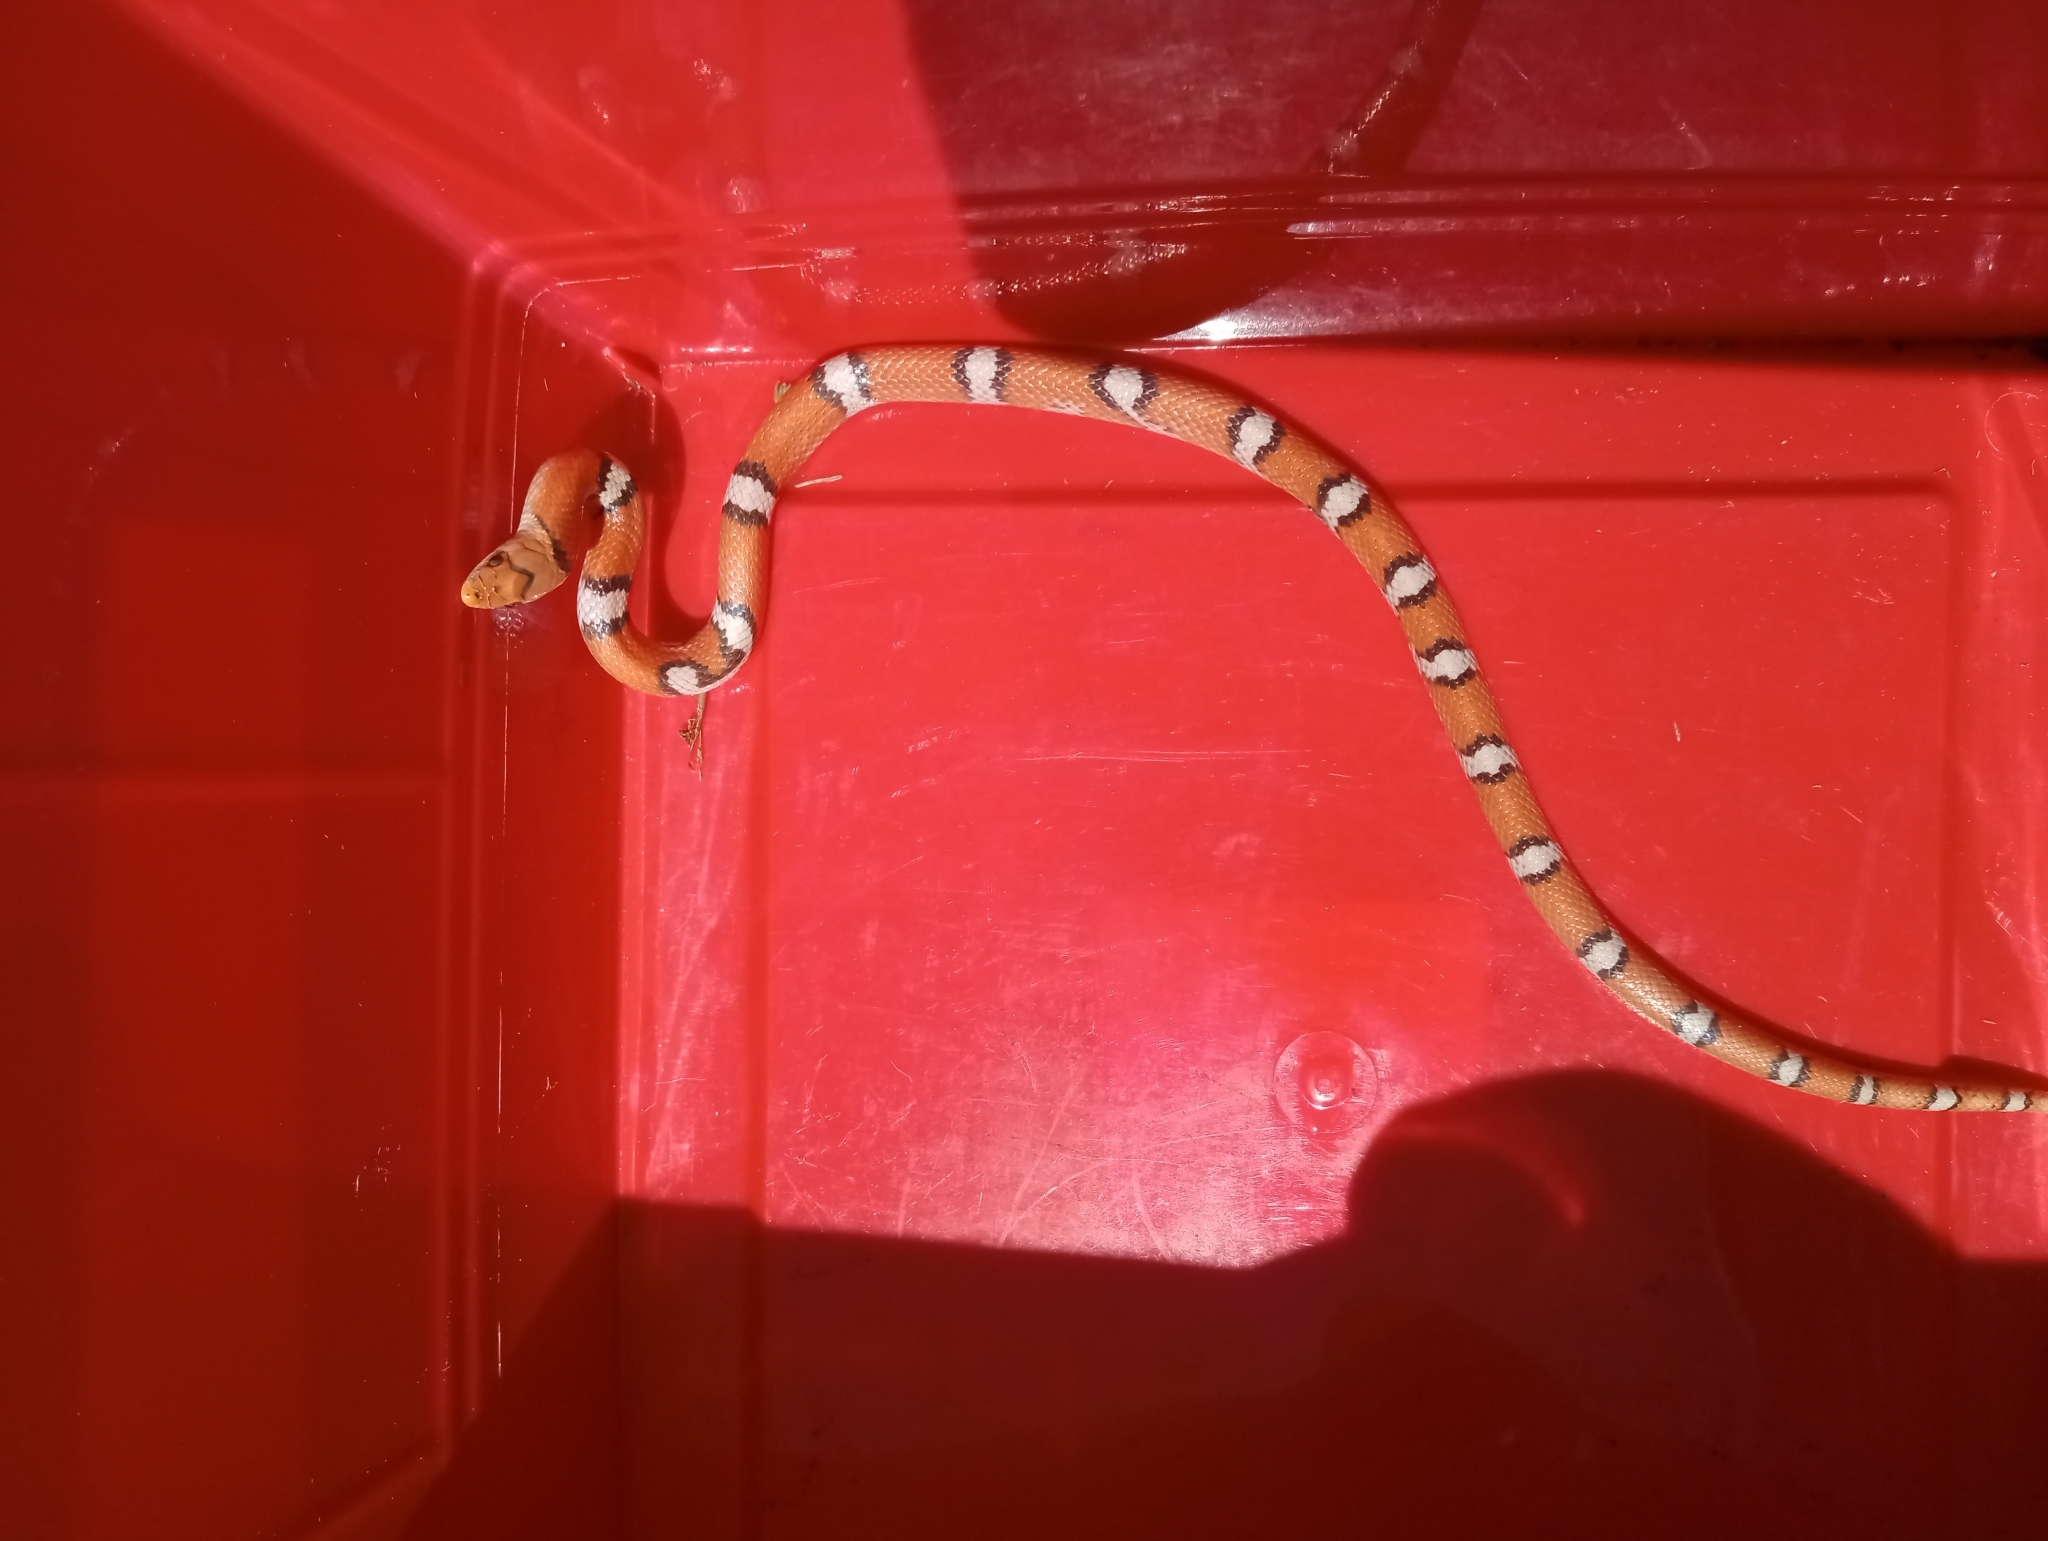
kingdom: Animalia
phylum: Chordata
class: Squamata
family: Colubridae
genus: Cemophora
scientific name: Cemophora coccinea
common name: Scarlet snake
